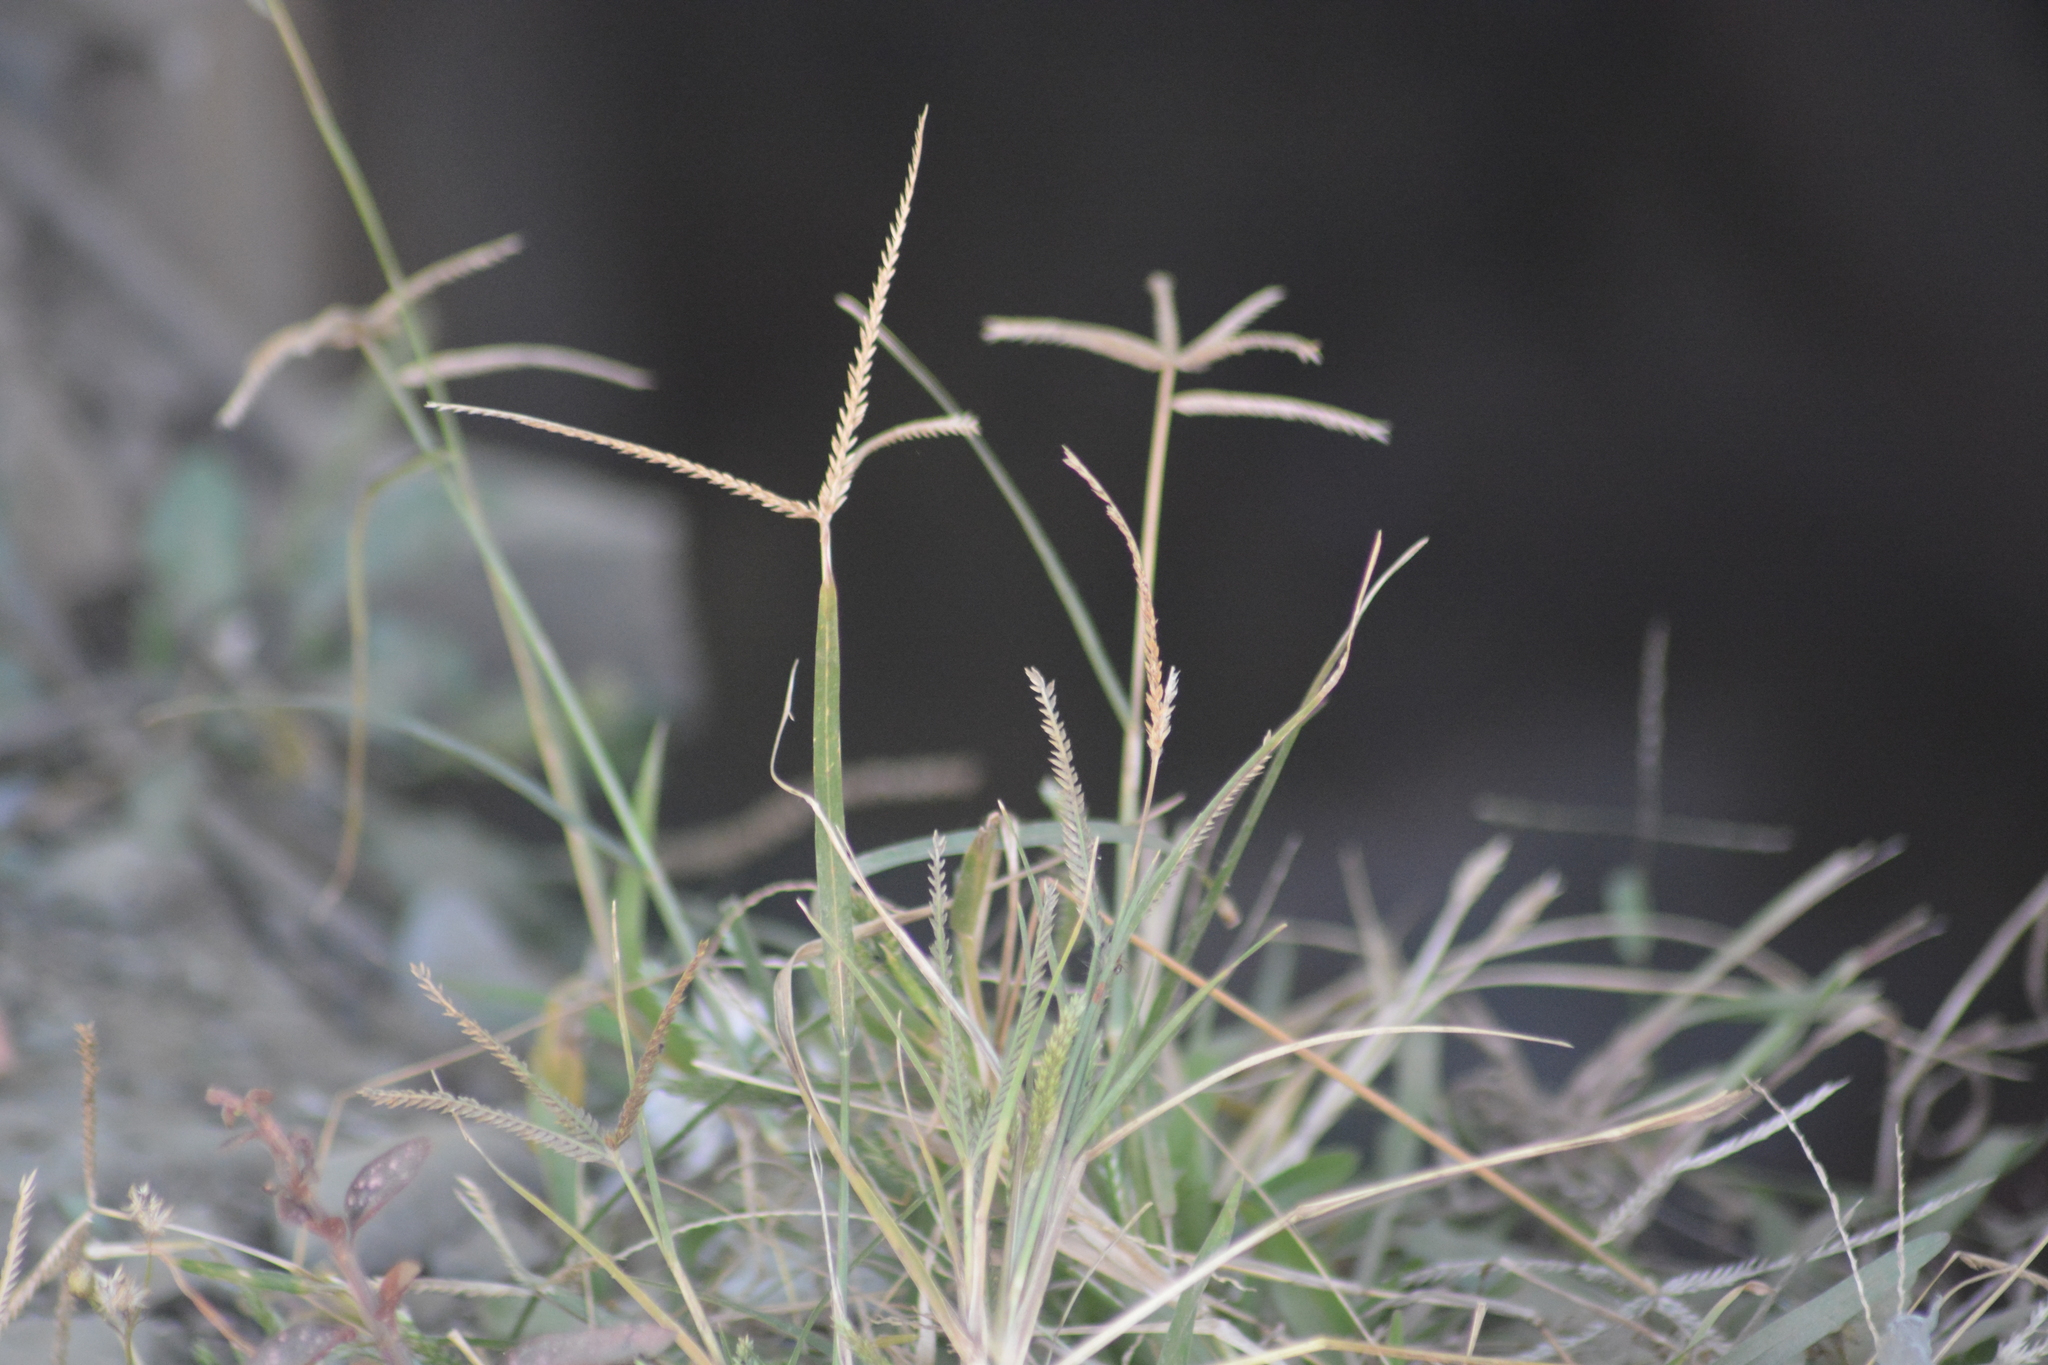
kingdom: Plantae
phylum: Tracheophyta
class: Liliopsida
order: Poales
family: Poaceae
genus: Eleusine
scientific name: Eleusine indica
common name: Yard-grass
